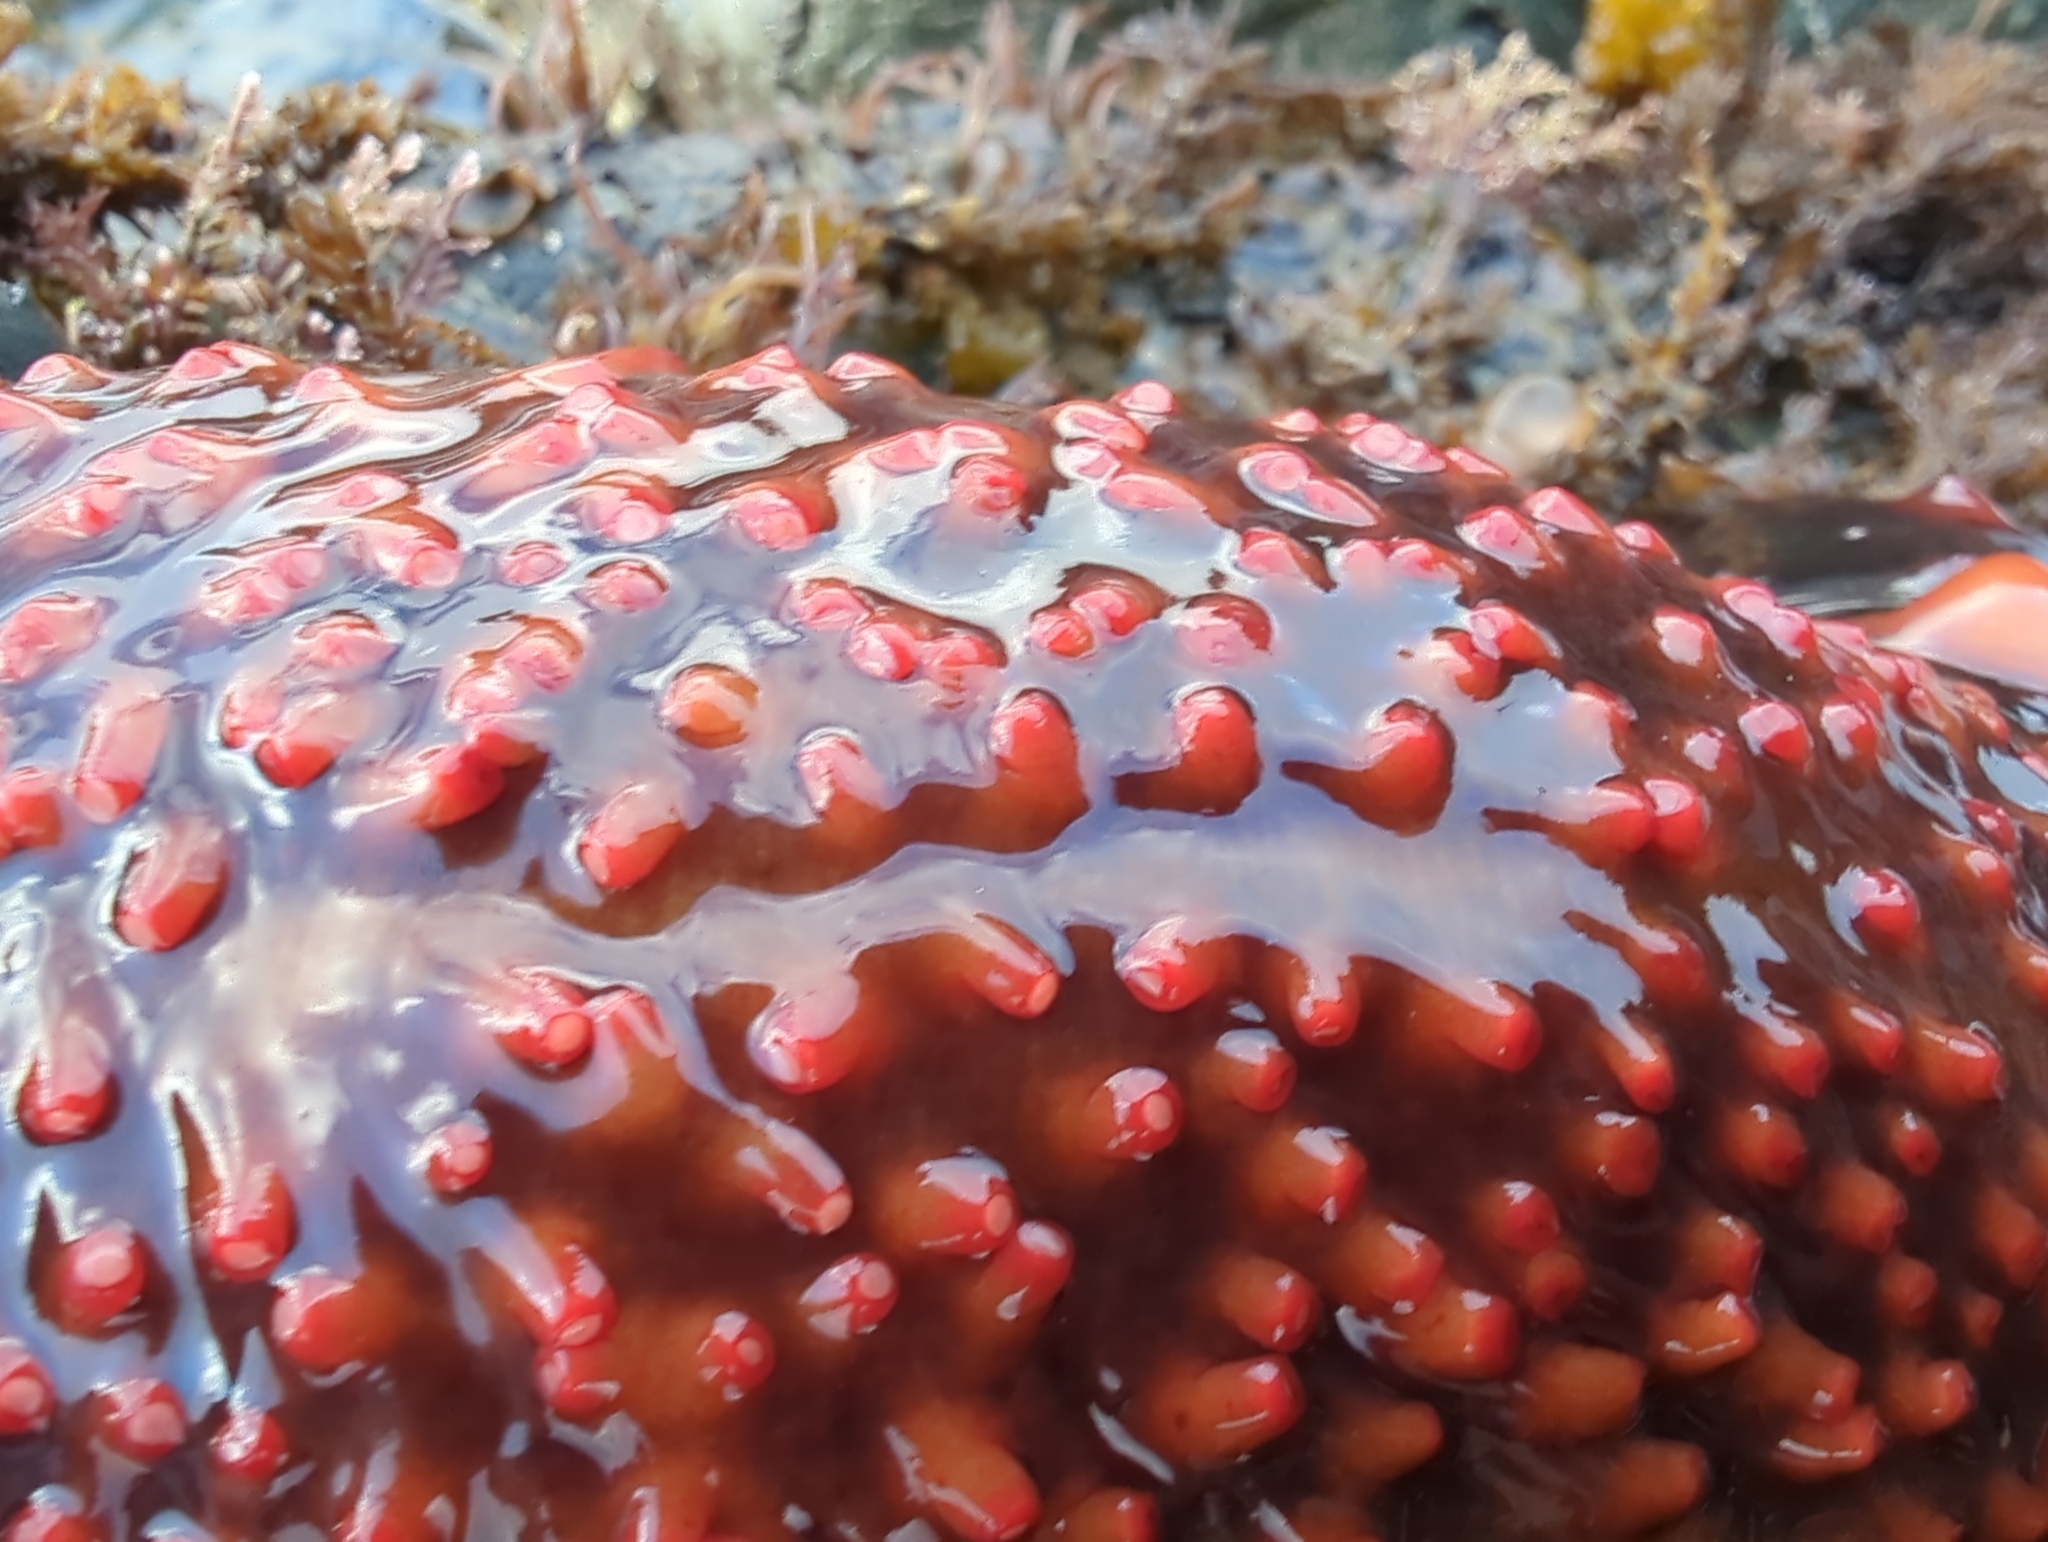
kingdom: Animalia
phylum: Echinodermata
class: Holothuroidea
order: Synallactida
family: Stichopodidae
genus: Apostichopus
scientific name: Apostichopus californicus
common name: California sea cucumber
